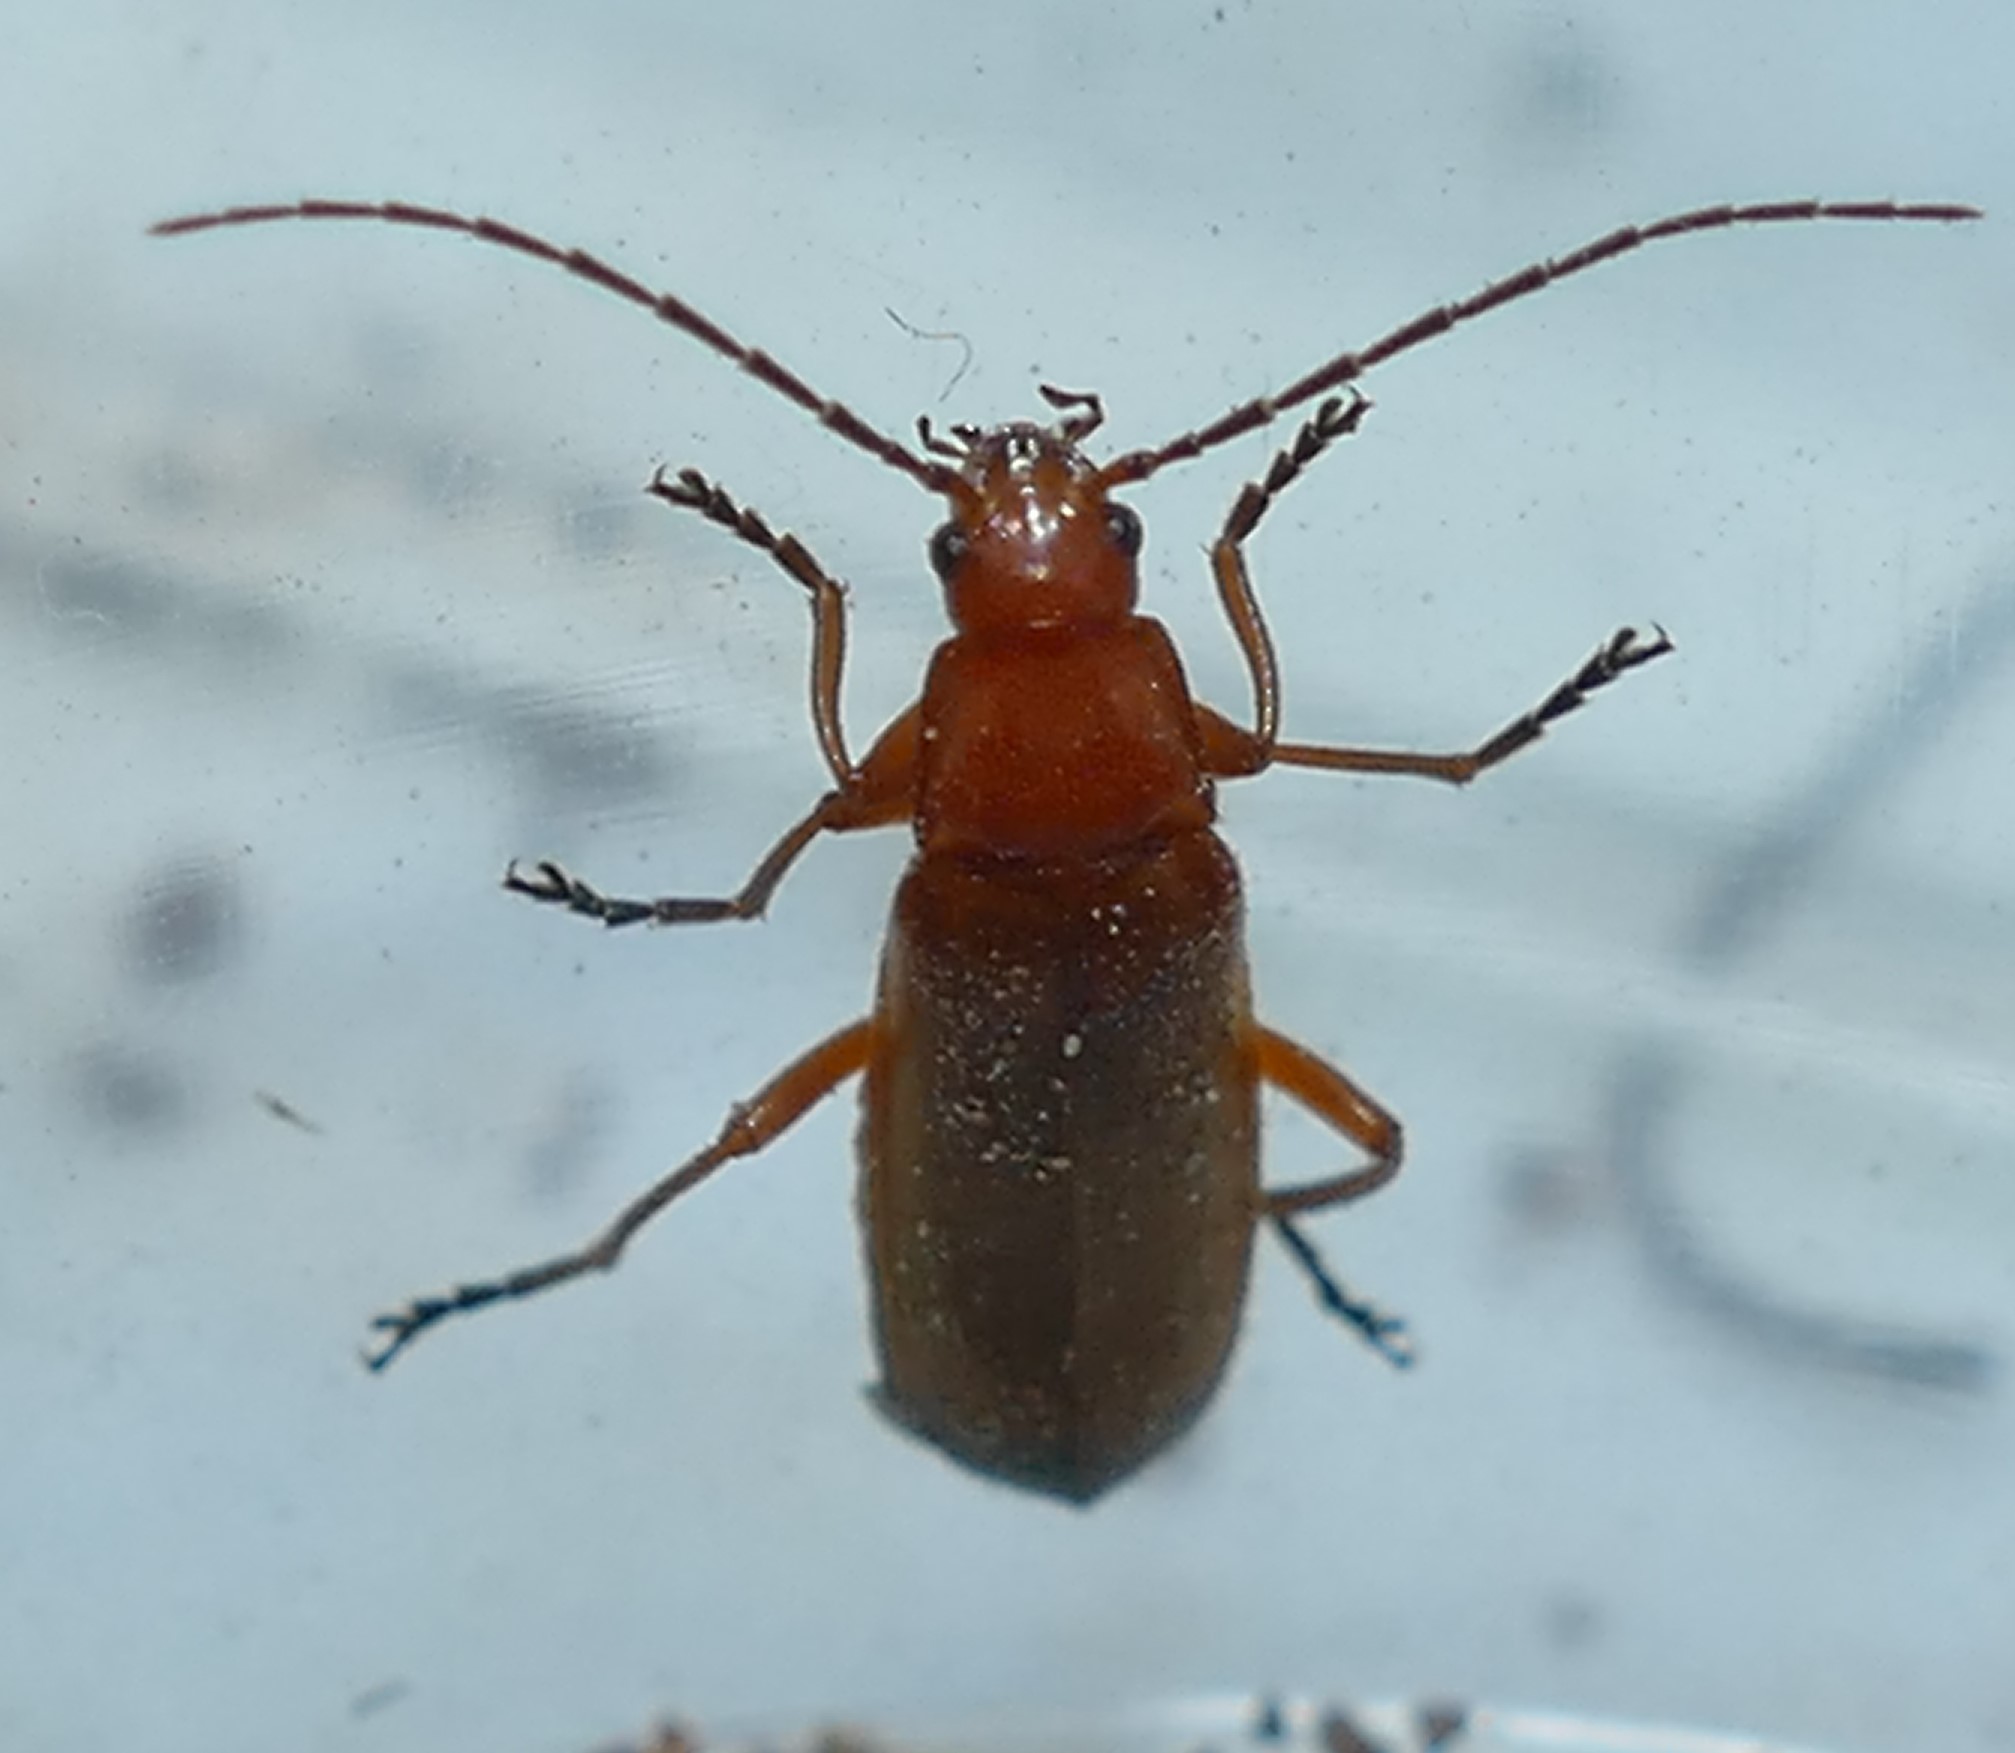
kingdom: Animalia
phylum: Arthropoda
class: Insecta
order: Coleoptera
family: Cantharidae
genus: Rhagonycha
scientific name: Rhagonycha fulva
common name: Common red soldier beetle
